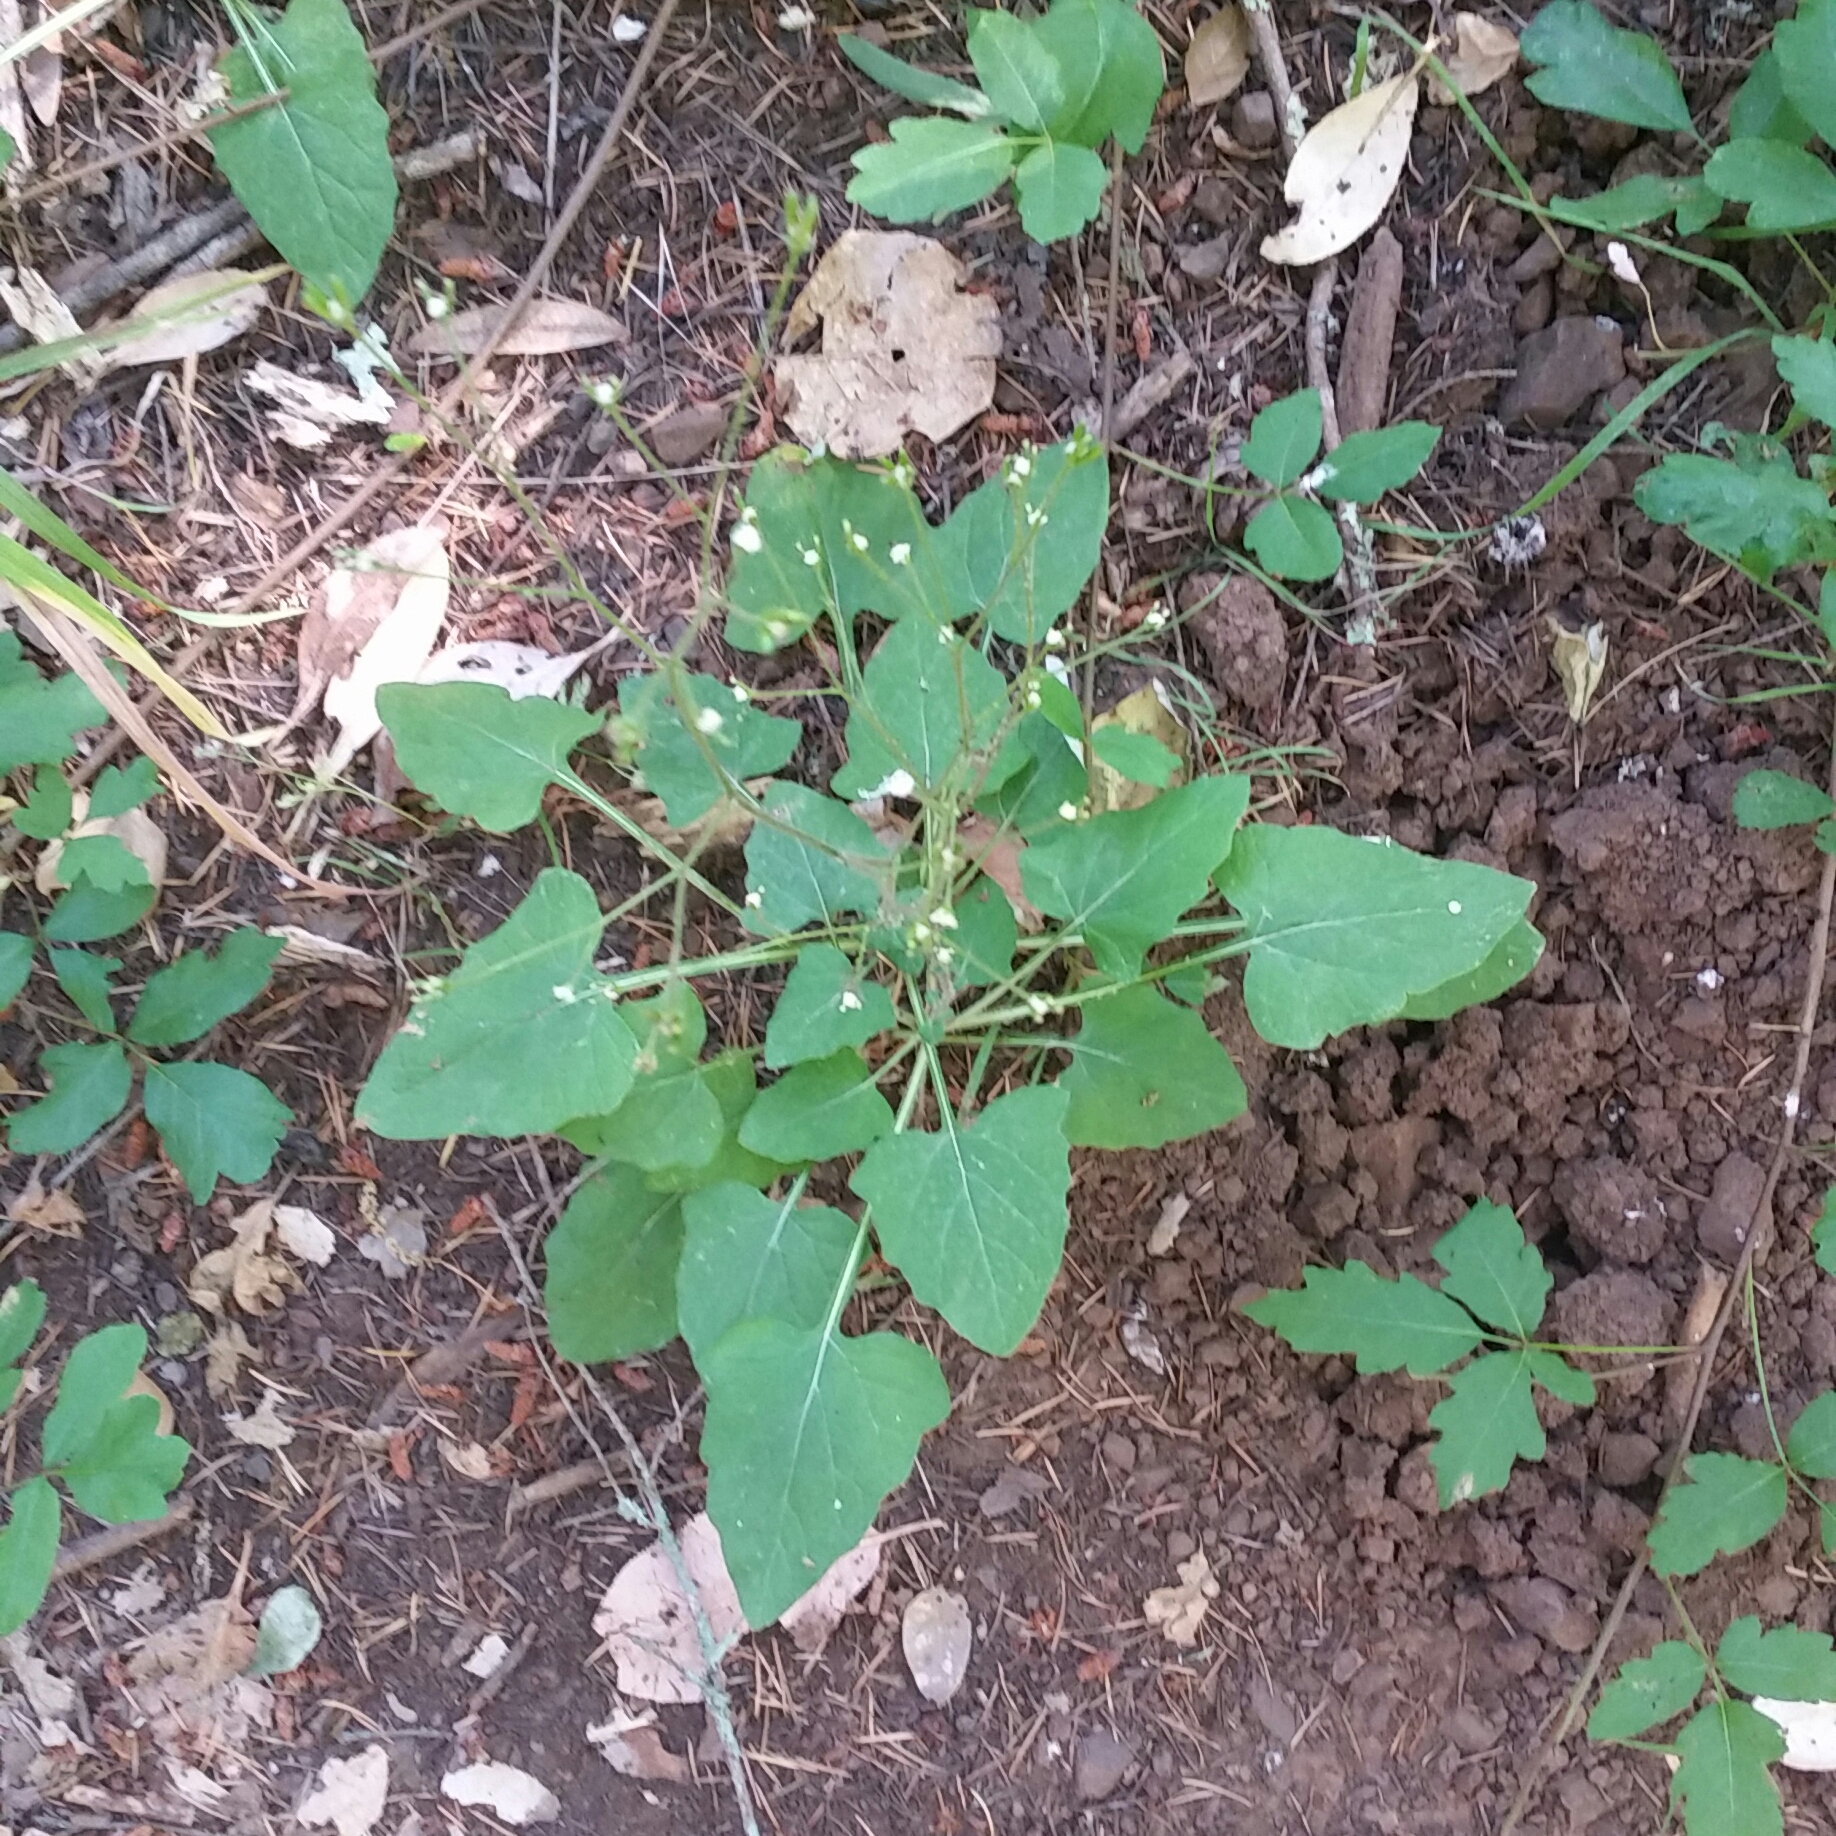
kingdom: Plantae
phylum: Tracheophyta
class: Magnoliopsida
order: Asterales
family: Asteraceae
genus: Adenocaulon
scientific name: Adenocaulon bicolor
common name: Trailplant
